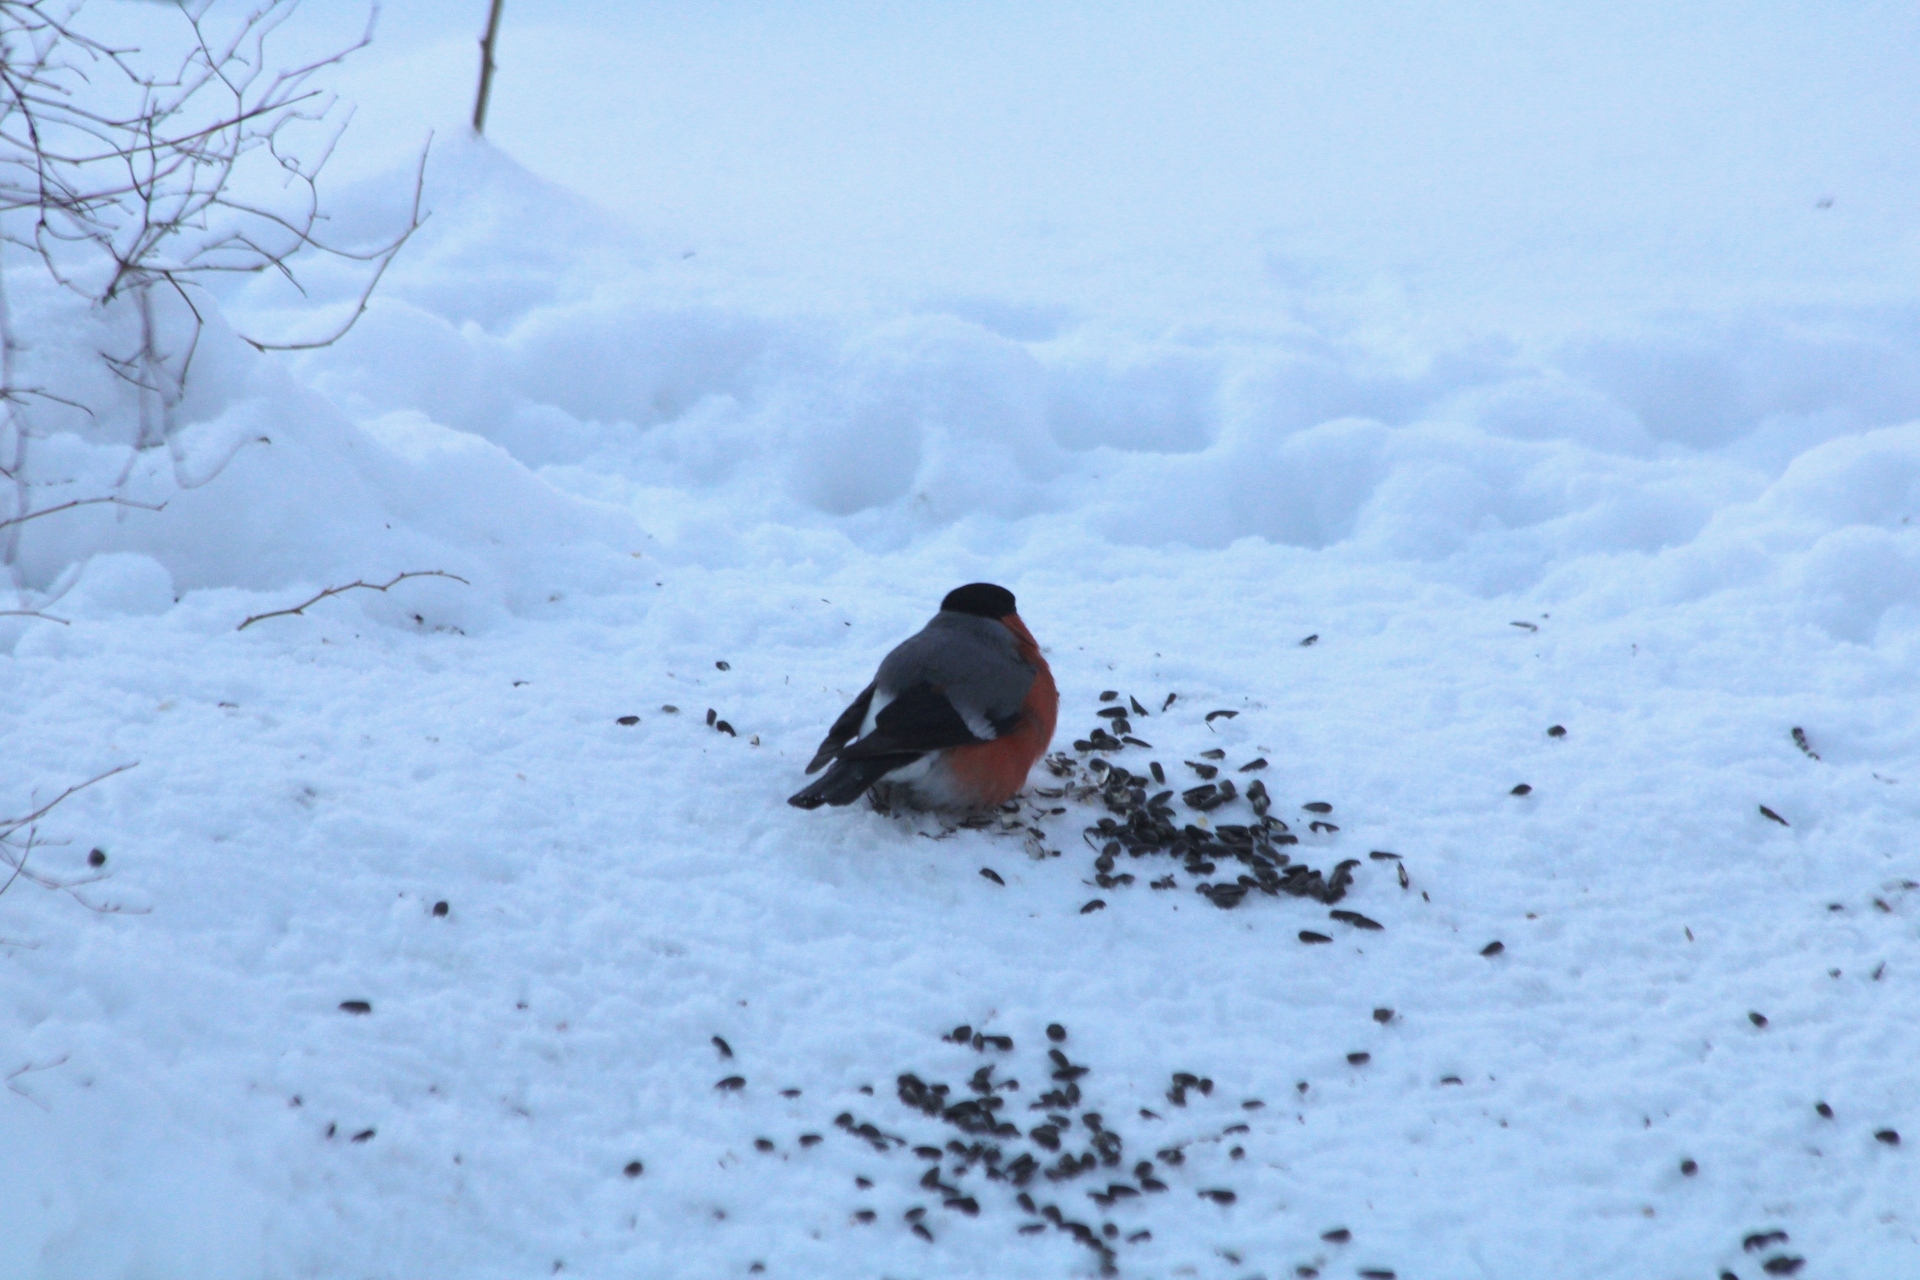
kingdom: Animalia
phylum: Chordata
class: Aves
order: Passeriformes
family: Fringillidae
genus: Pyrrhula
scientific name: Pyrrhula pyrrhula
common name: Eurasian bullfinch
